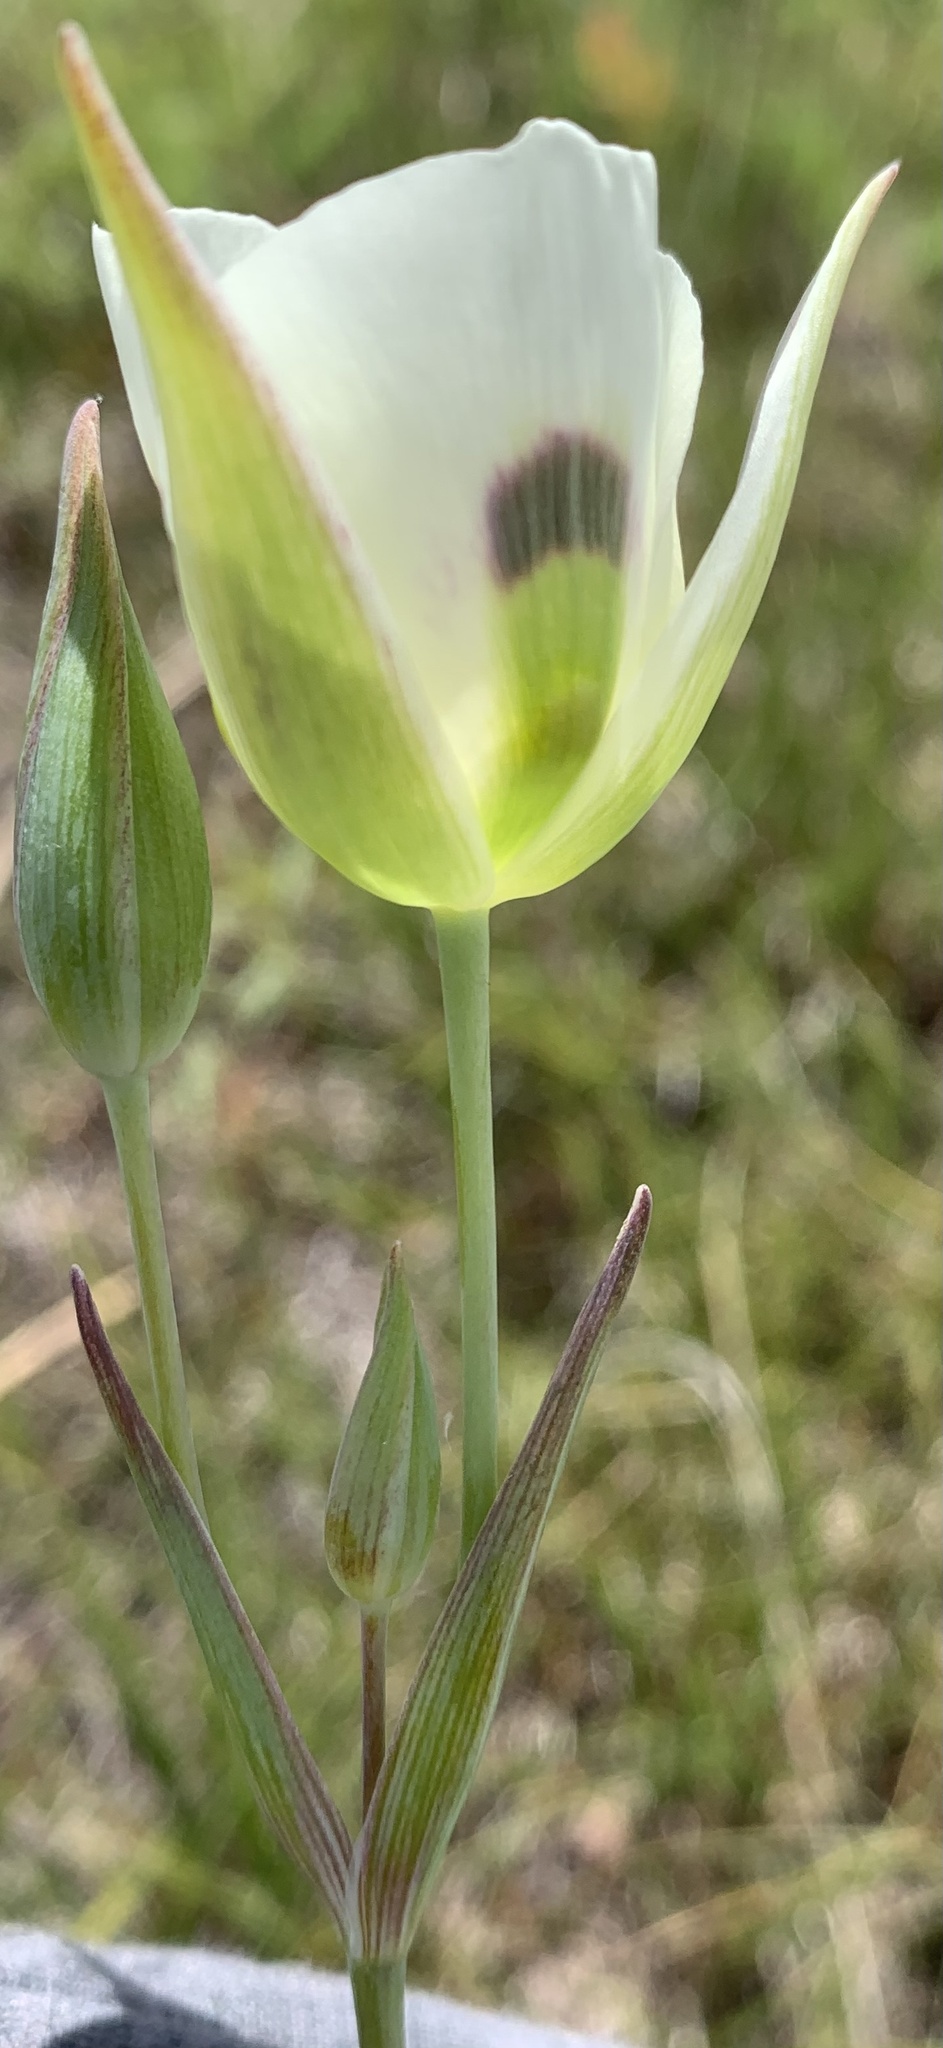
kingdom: Plantae
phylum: Tracheophyta
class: Liliopsida
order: Liliales
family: Liliaceae
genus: Calochortus
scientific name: Calochortus eurycarpus
